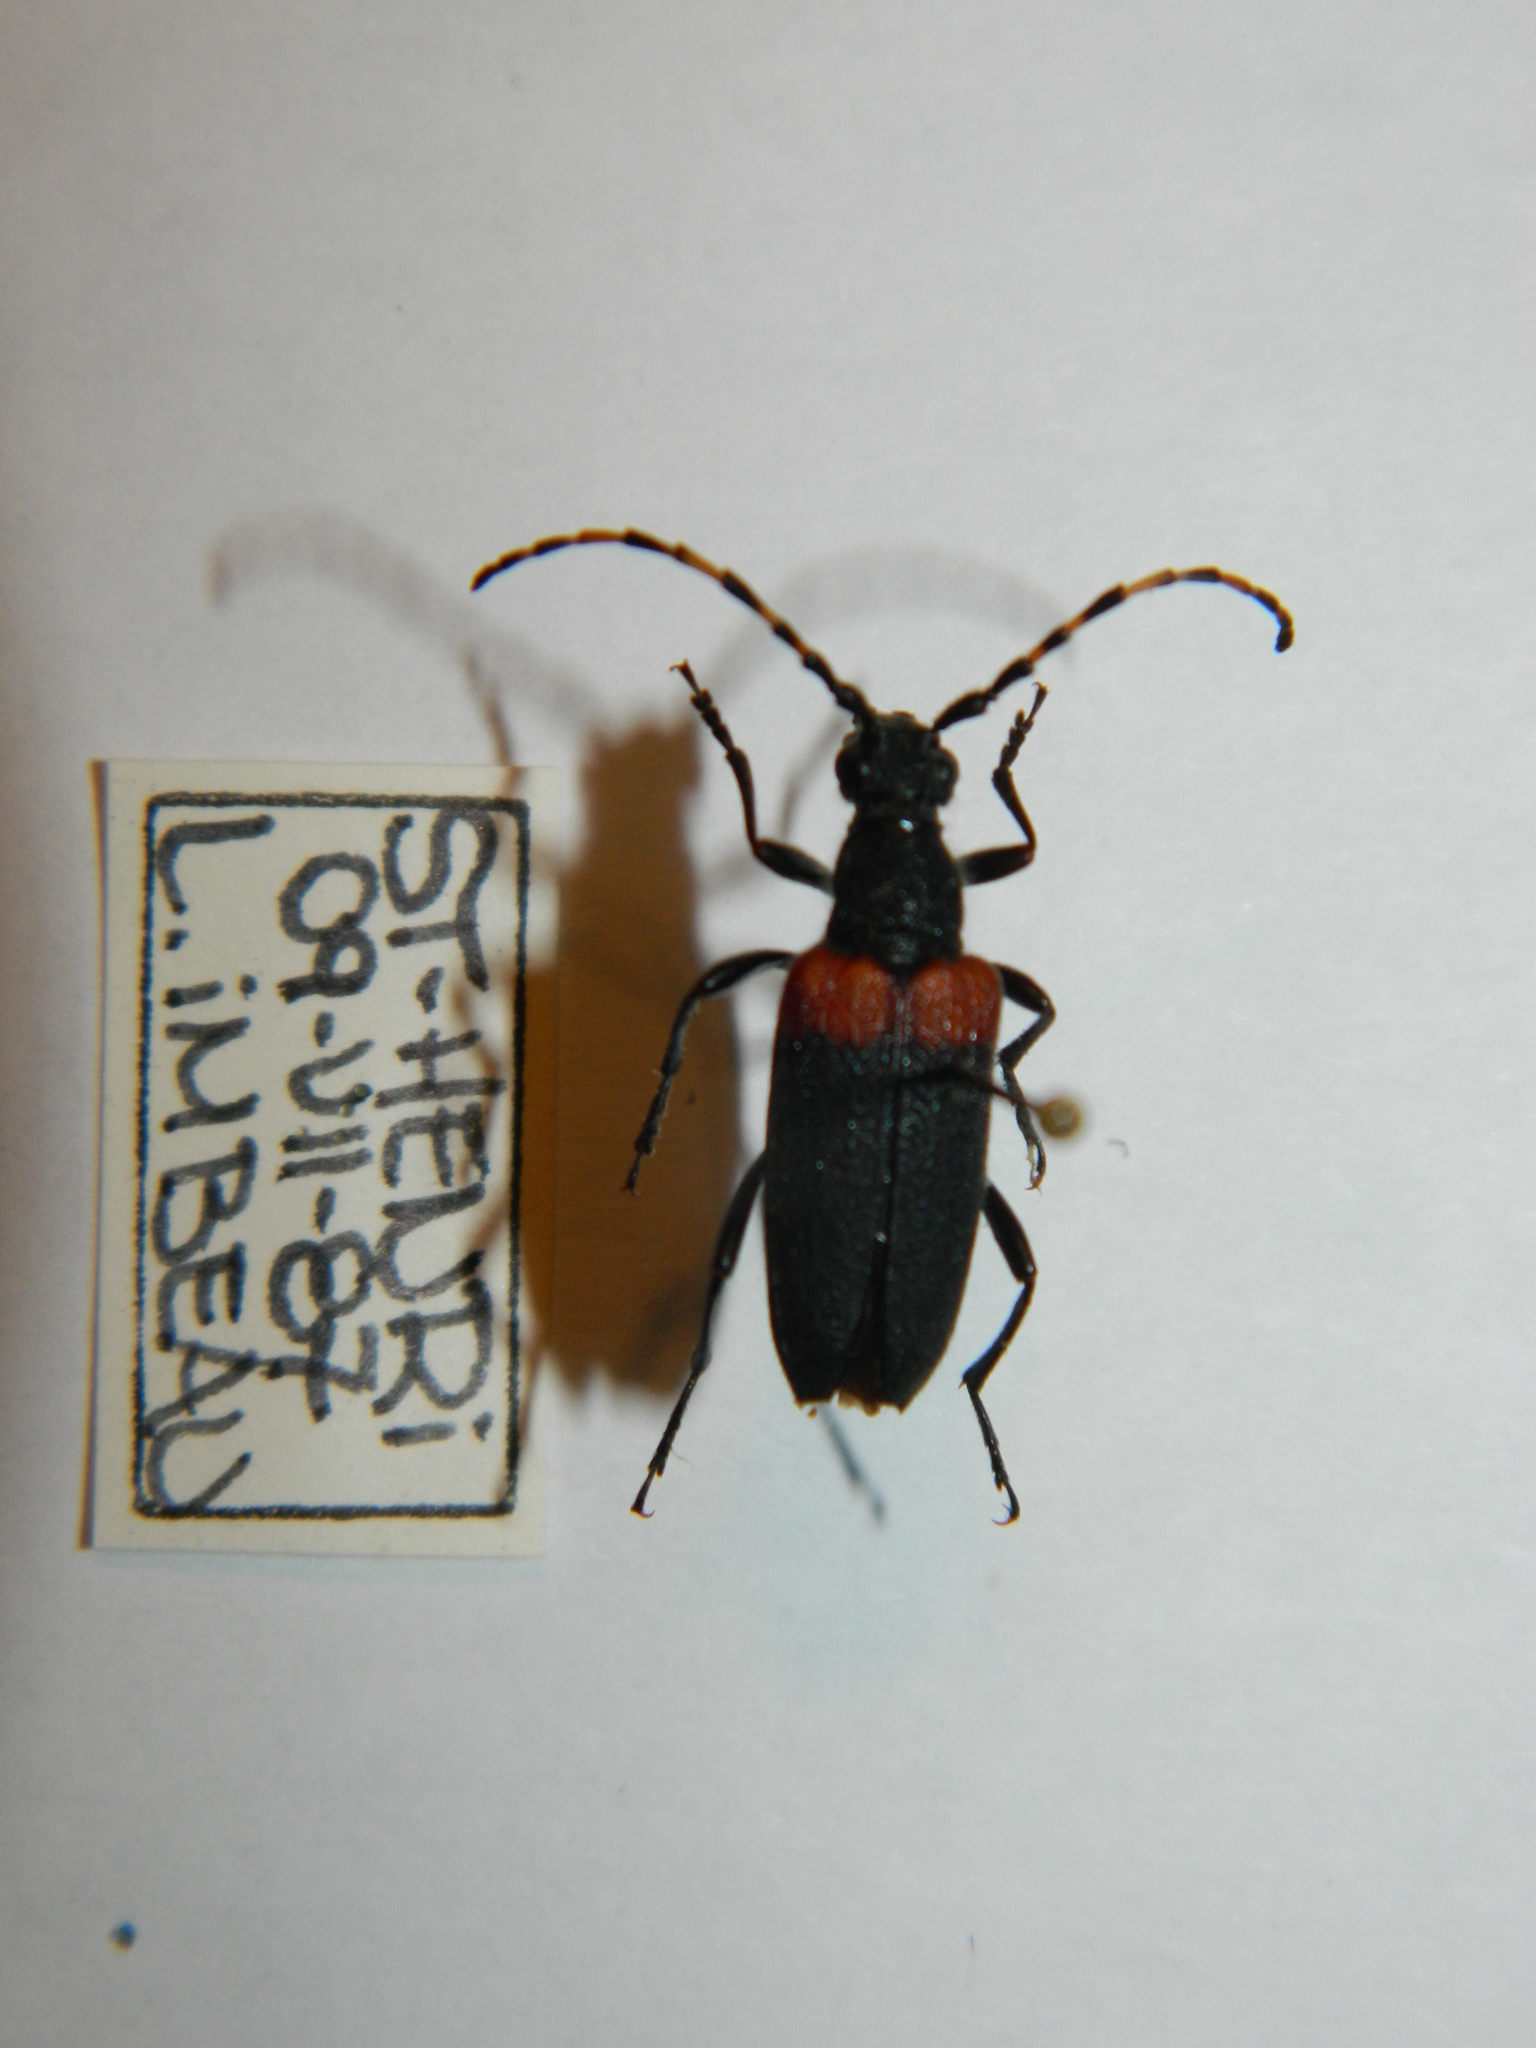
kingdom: Animalia
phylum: Arthropoda
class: Insecta
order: Coleoptera
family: Cerambycidae
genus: Stictoleptura
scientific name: Stictoleptura canadensis
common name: Red-shouldered pine borer
